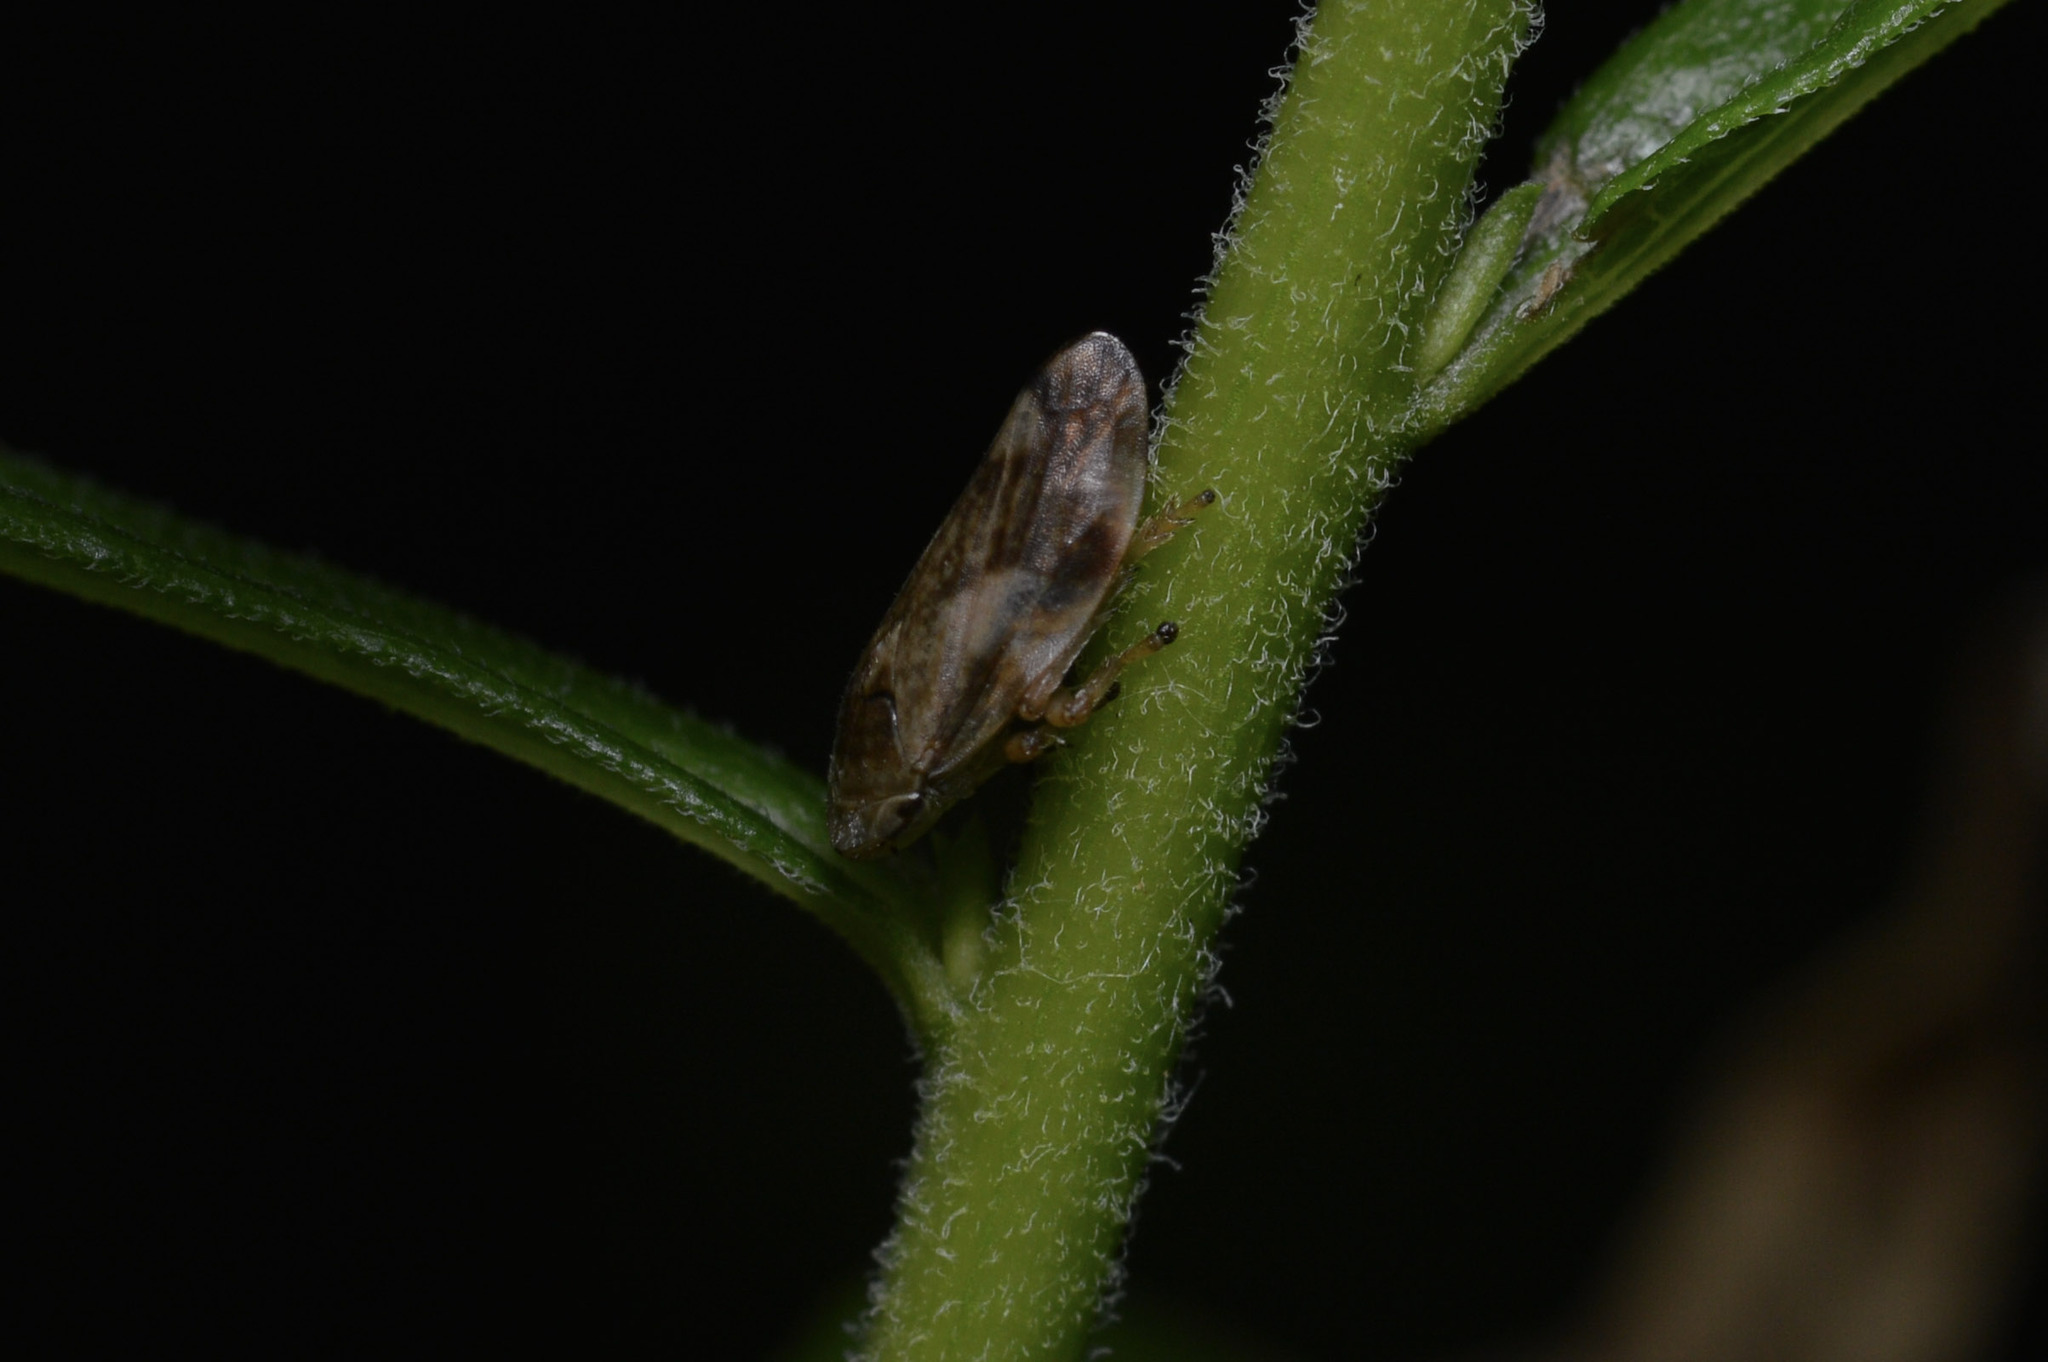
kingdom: Animalia
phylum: Arthropoda
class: Insecta
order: Hemiptera
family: Aphrophoridae
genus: Philaenus
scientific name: Philaenus spumarius
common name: Meadow spittlebug
